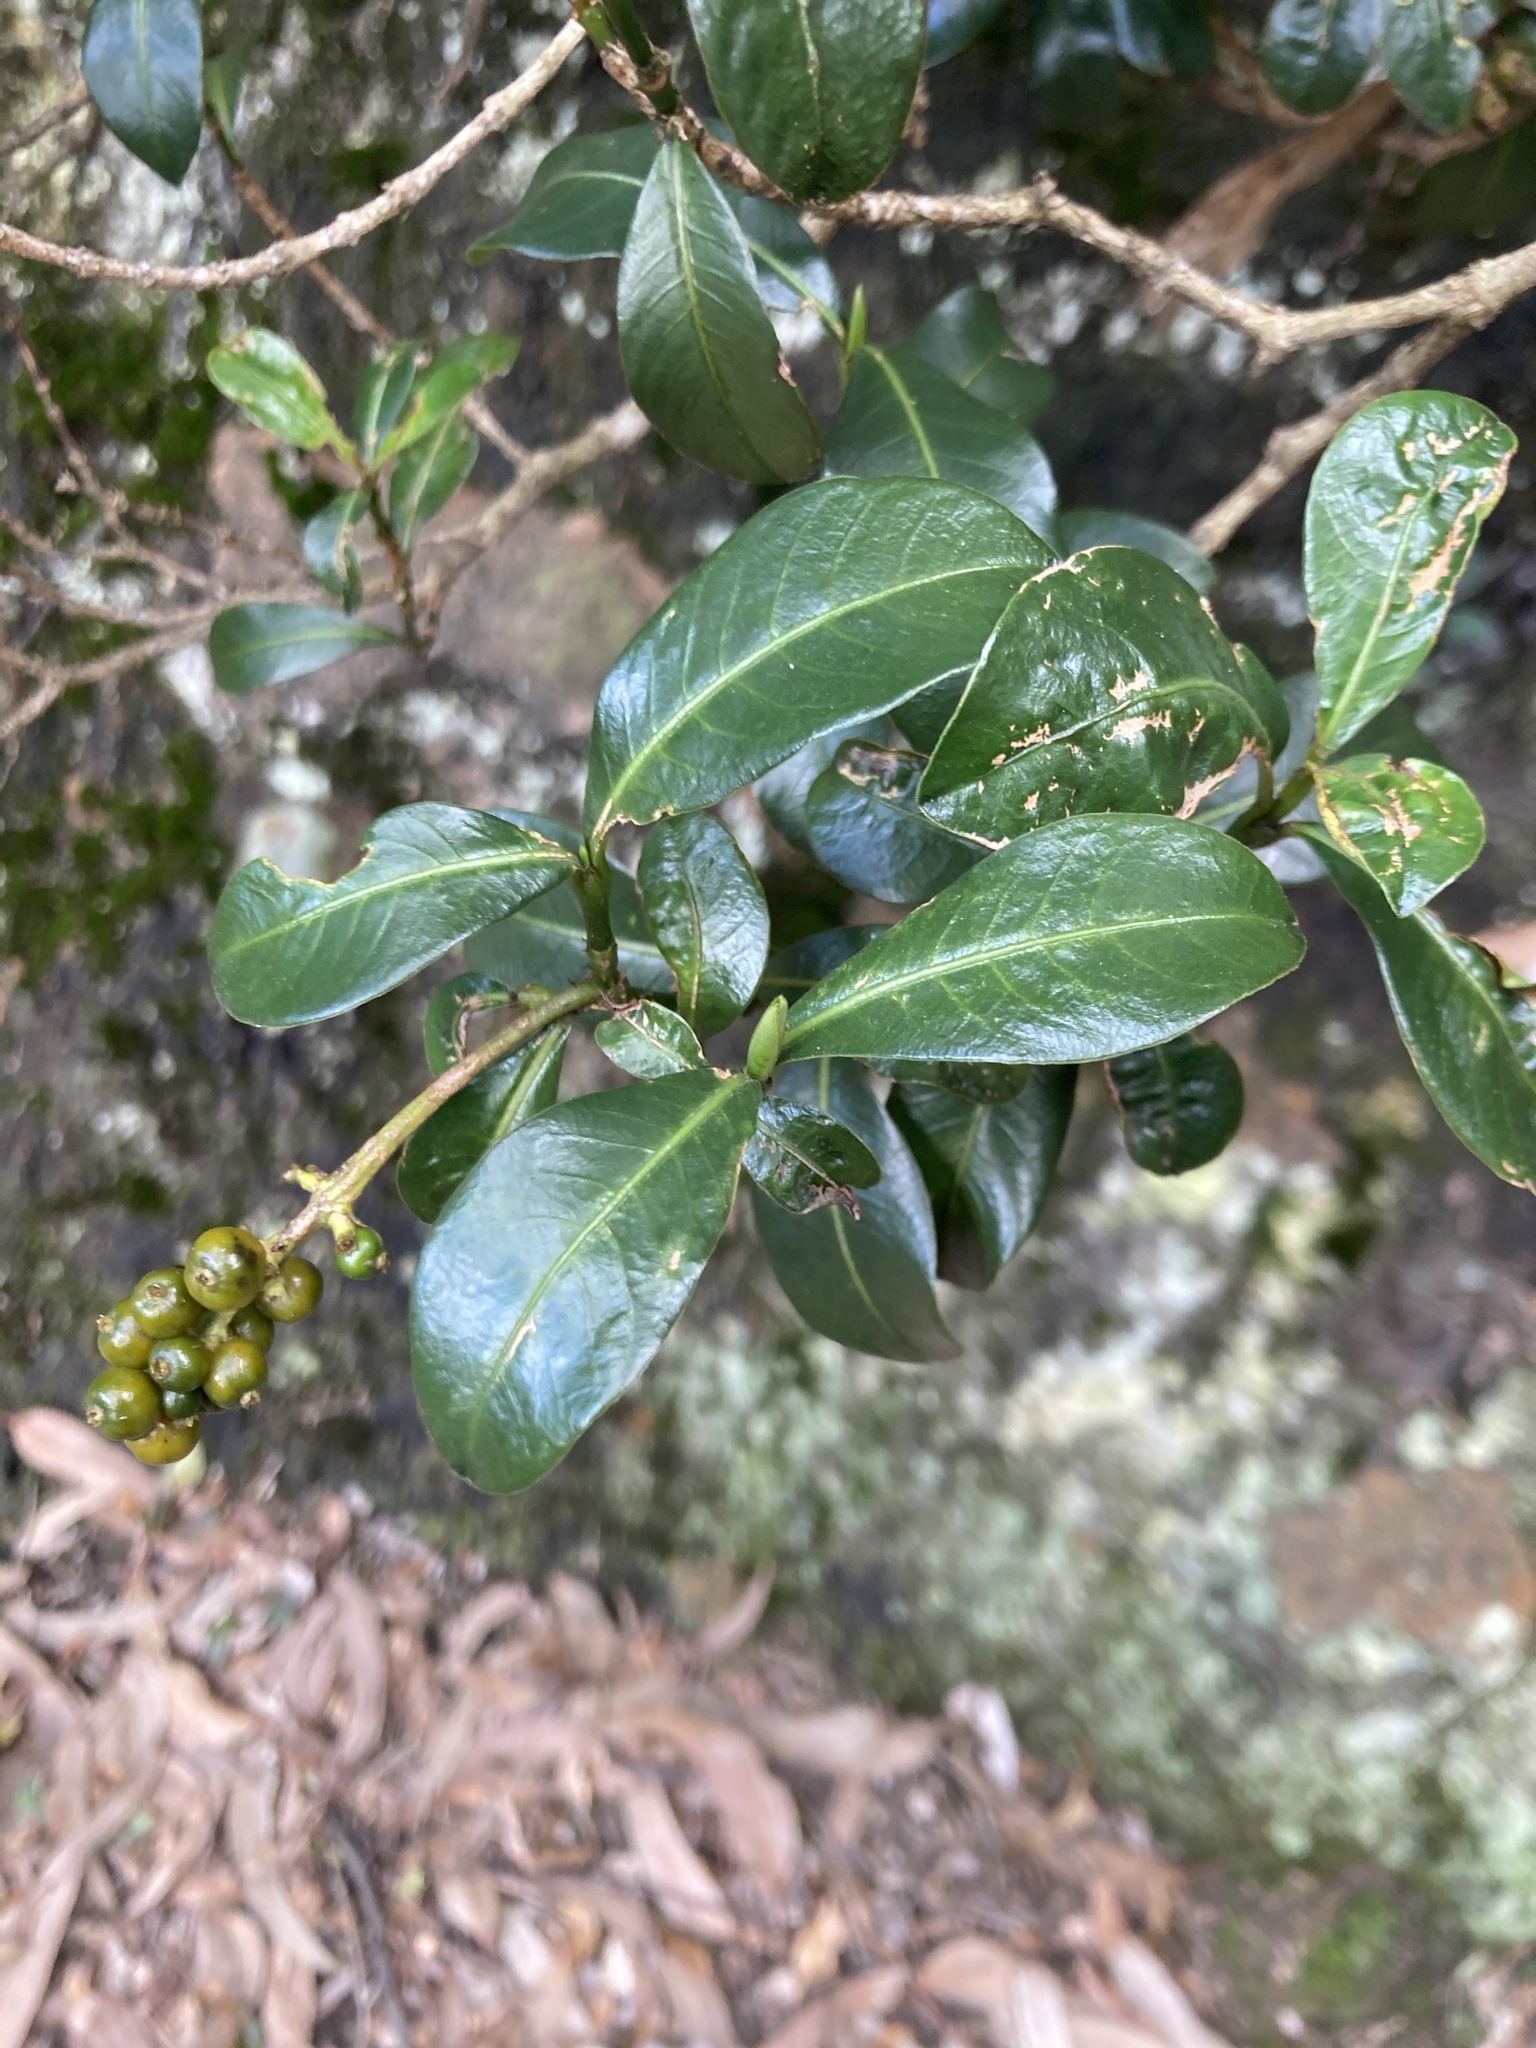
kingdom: Plantae
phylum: Tracheophyta
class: Magnoliopsida
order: Gentianales
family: Rubiaceae
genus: Palicourea
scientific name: Palicourea boqueronensis
